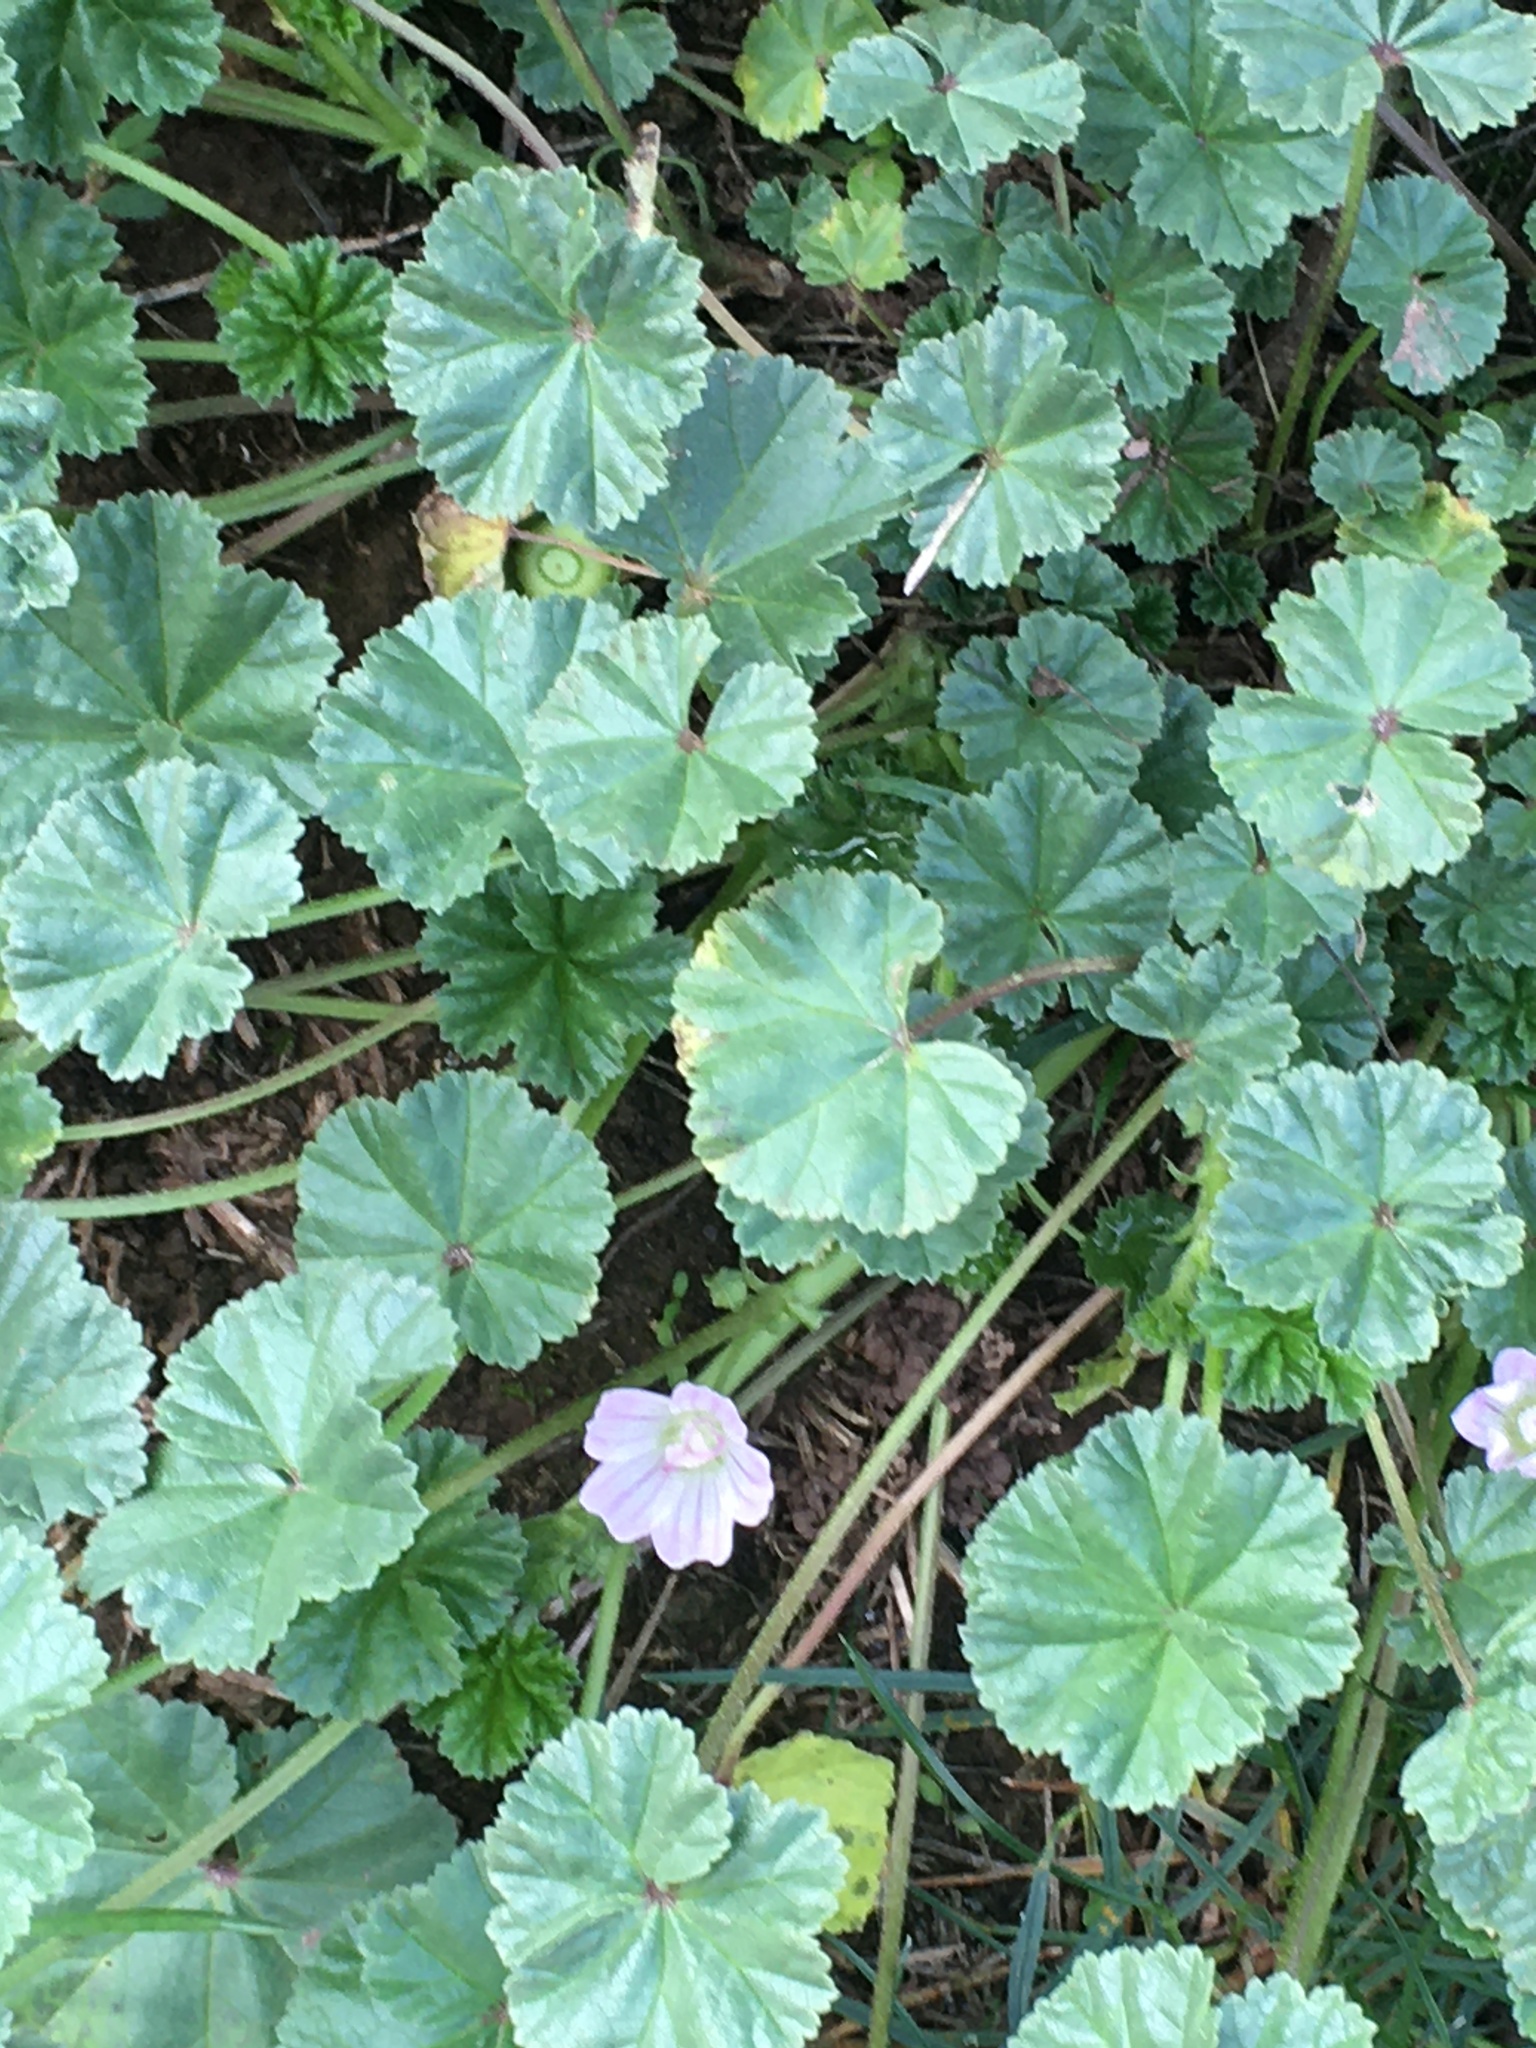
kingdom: Plantae
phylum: Tracheophyta
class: Magnoliopsida
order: Malvales
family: Malvaceae
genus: Malva
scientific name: Malva neglecta
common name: Common mallow
